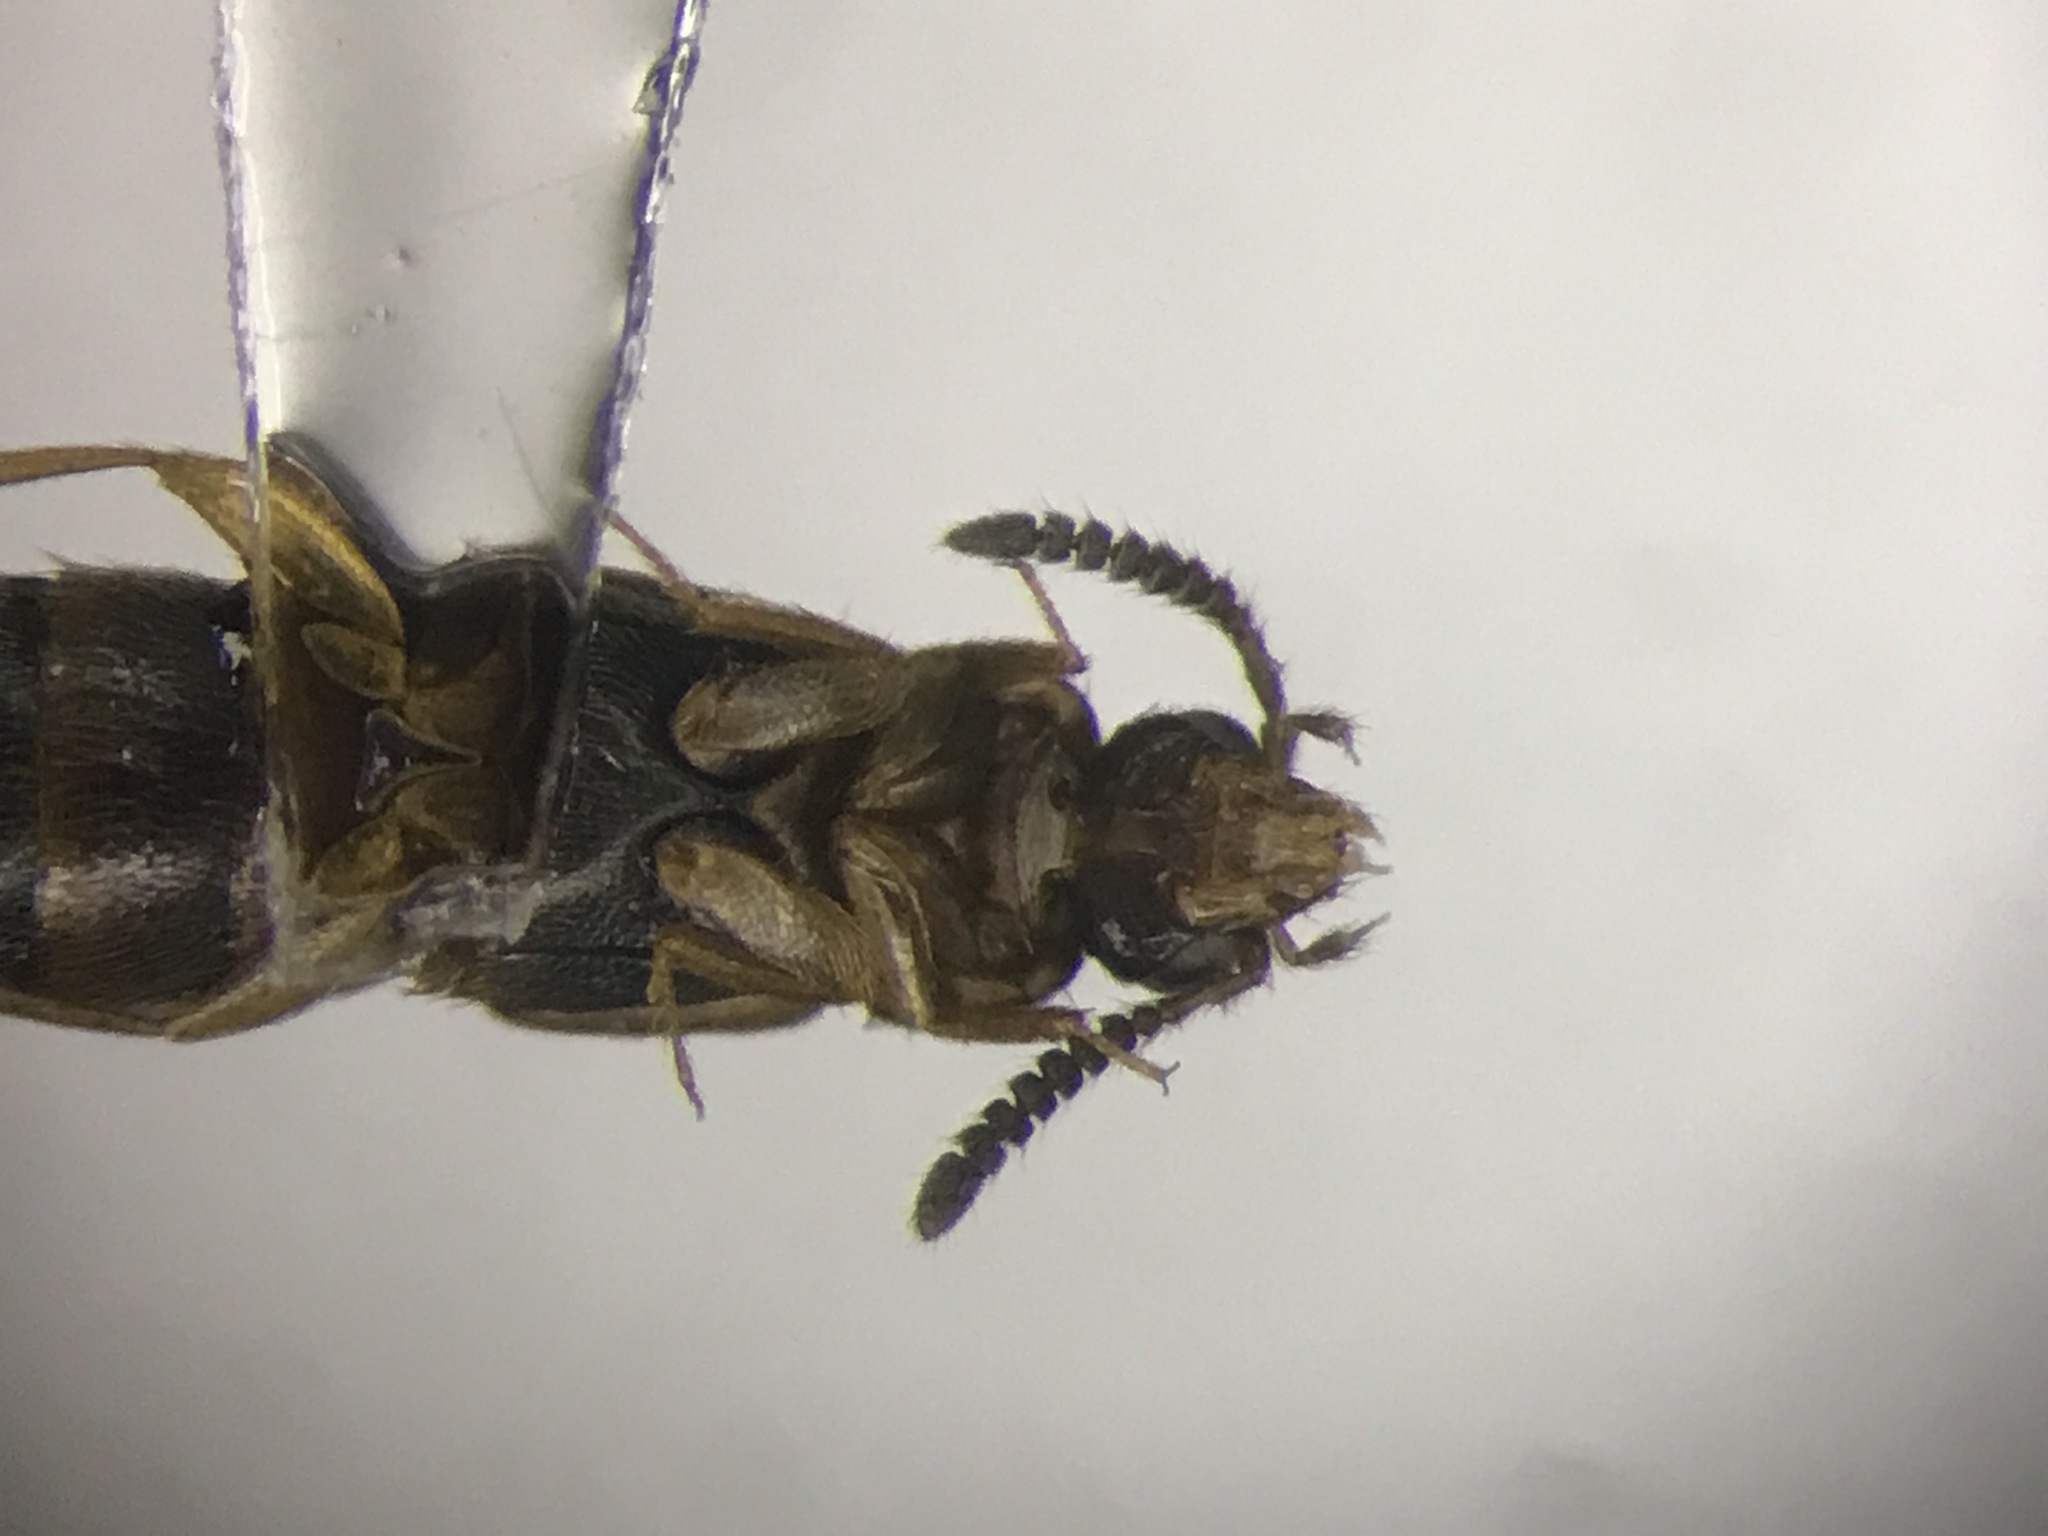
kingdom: Animalia
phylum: Arthropoda
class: Insecta
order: Coleoptera
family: Staphylinidae
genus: Thamiaraea
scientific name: Thamiaraea brittoni
